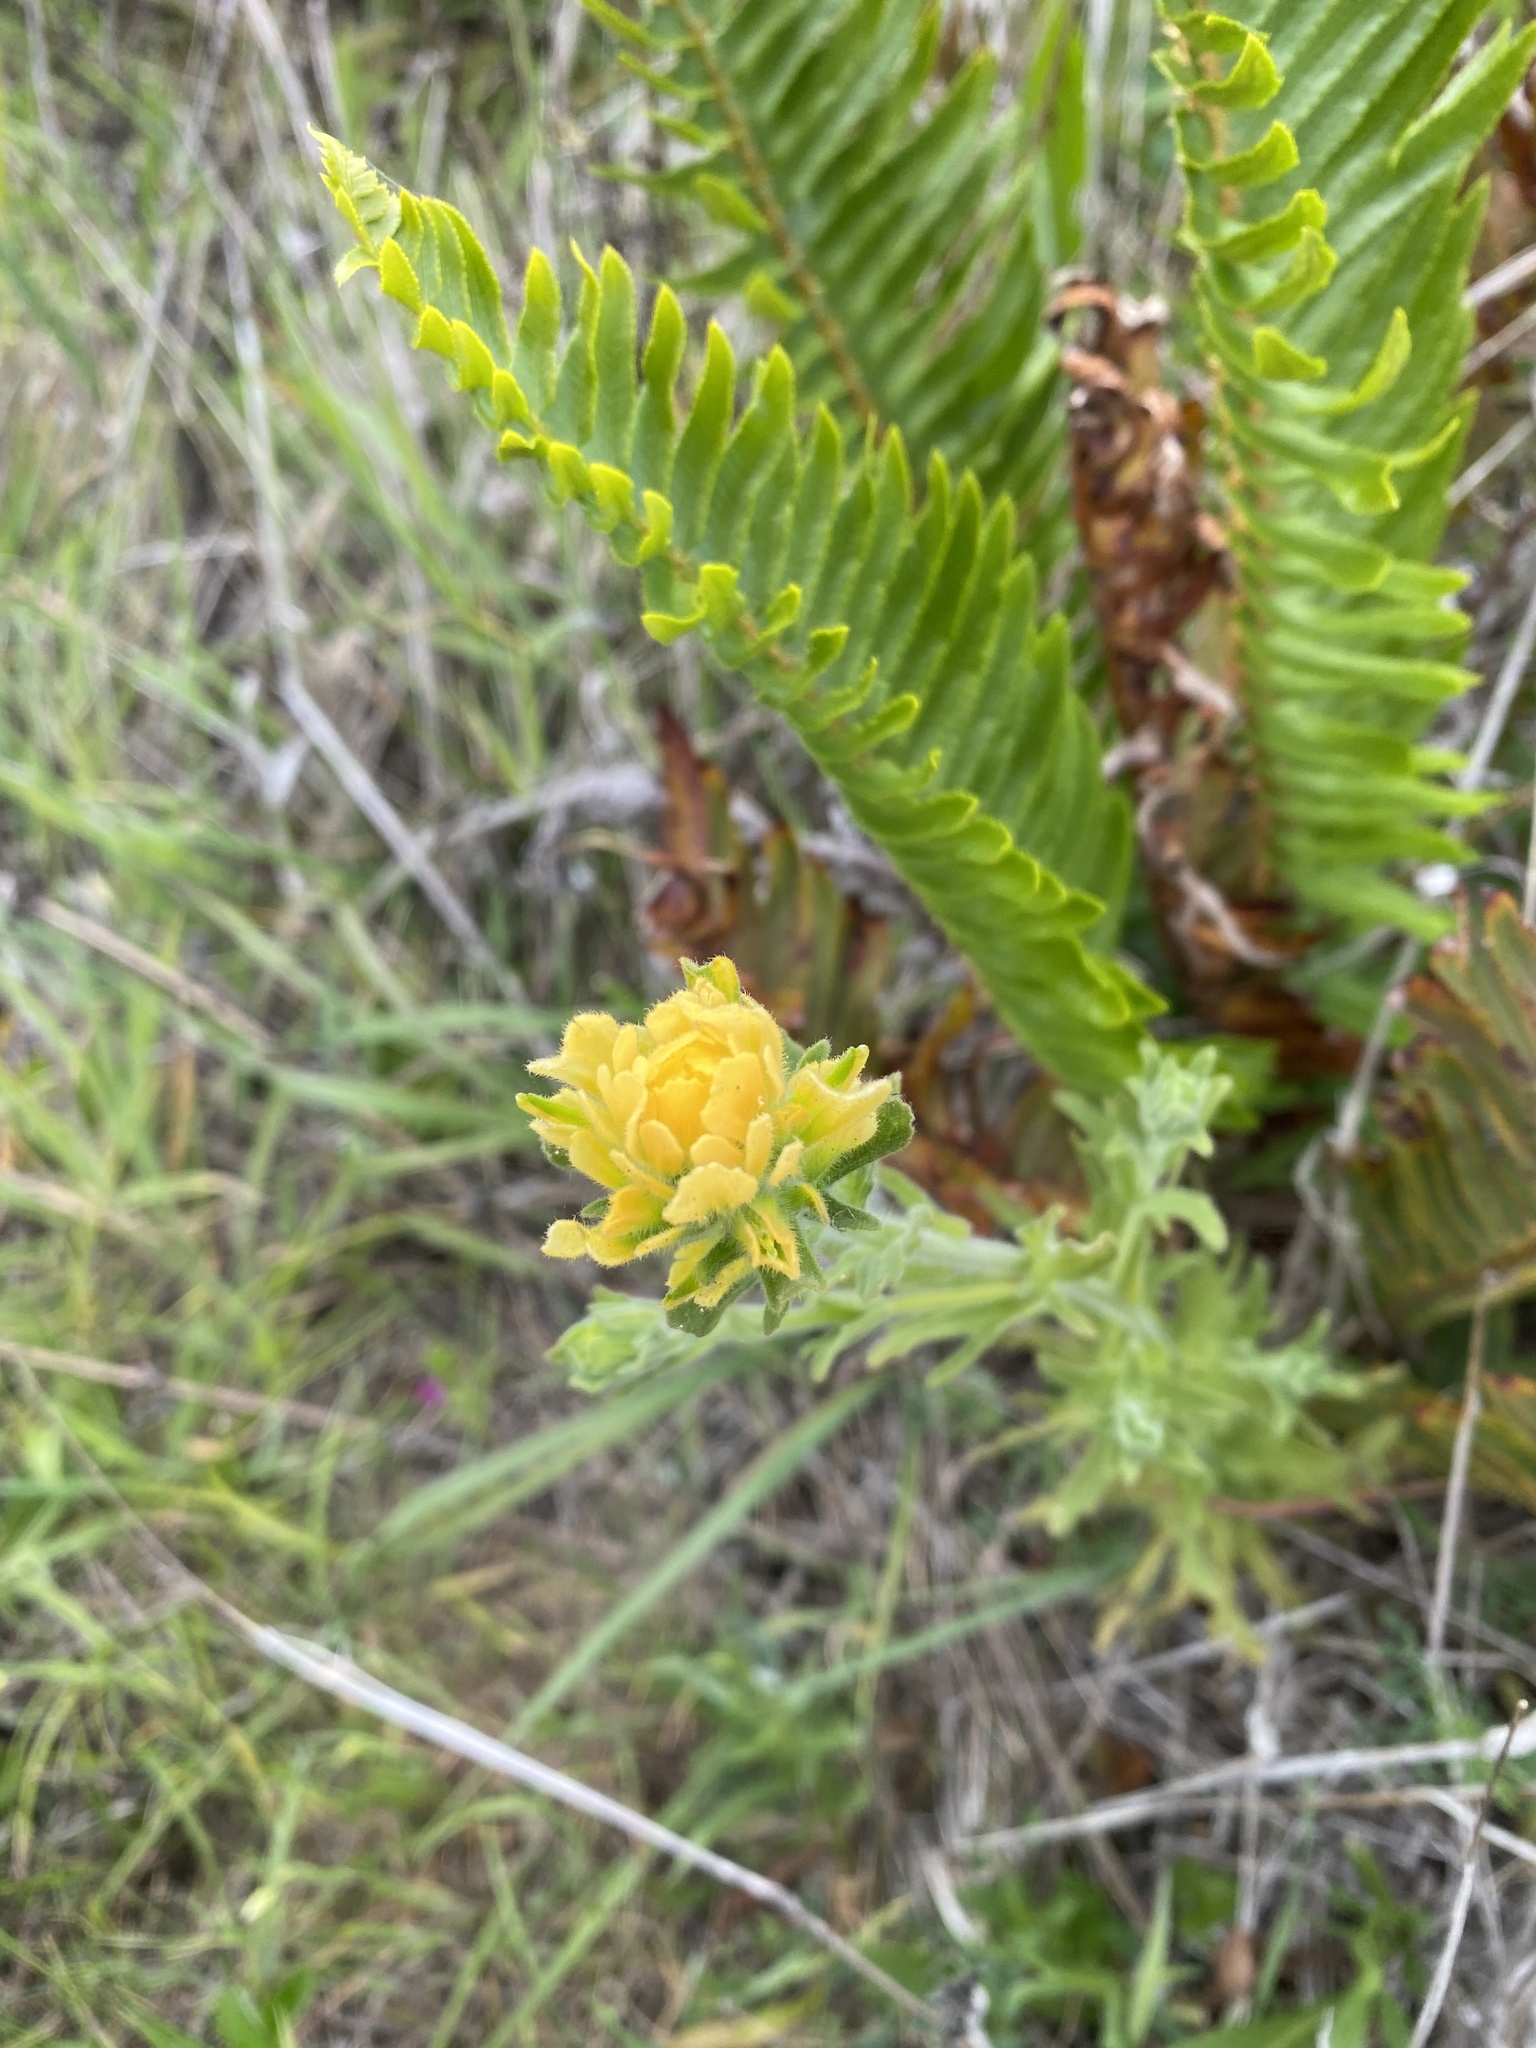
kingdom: Plantae
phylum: Tracheophyta
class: Magnoliopsida
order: Lamiales
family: Orobanchaceae
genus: Castilleja
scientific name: Castilleja wightii
